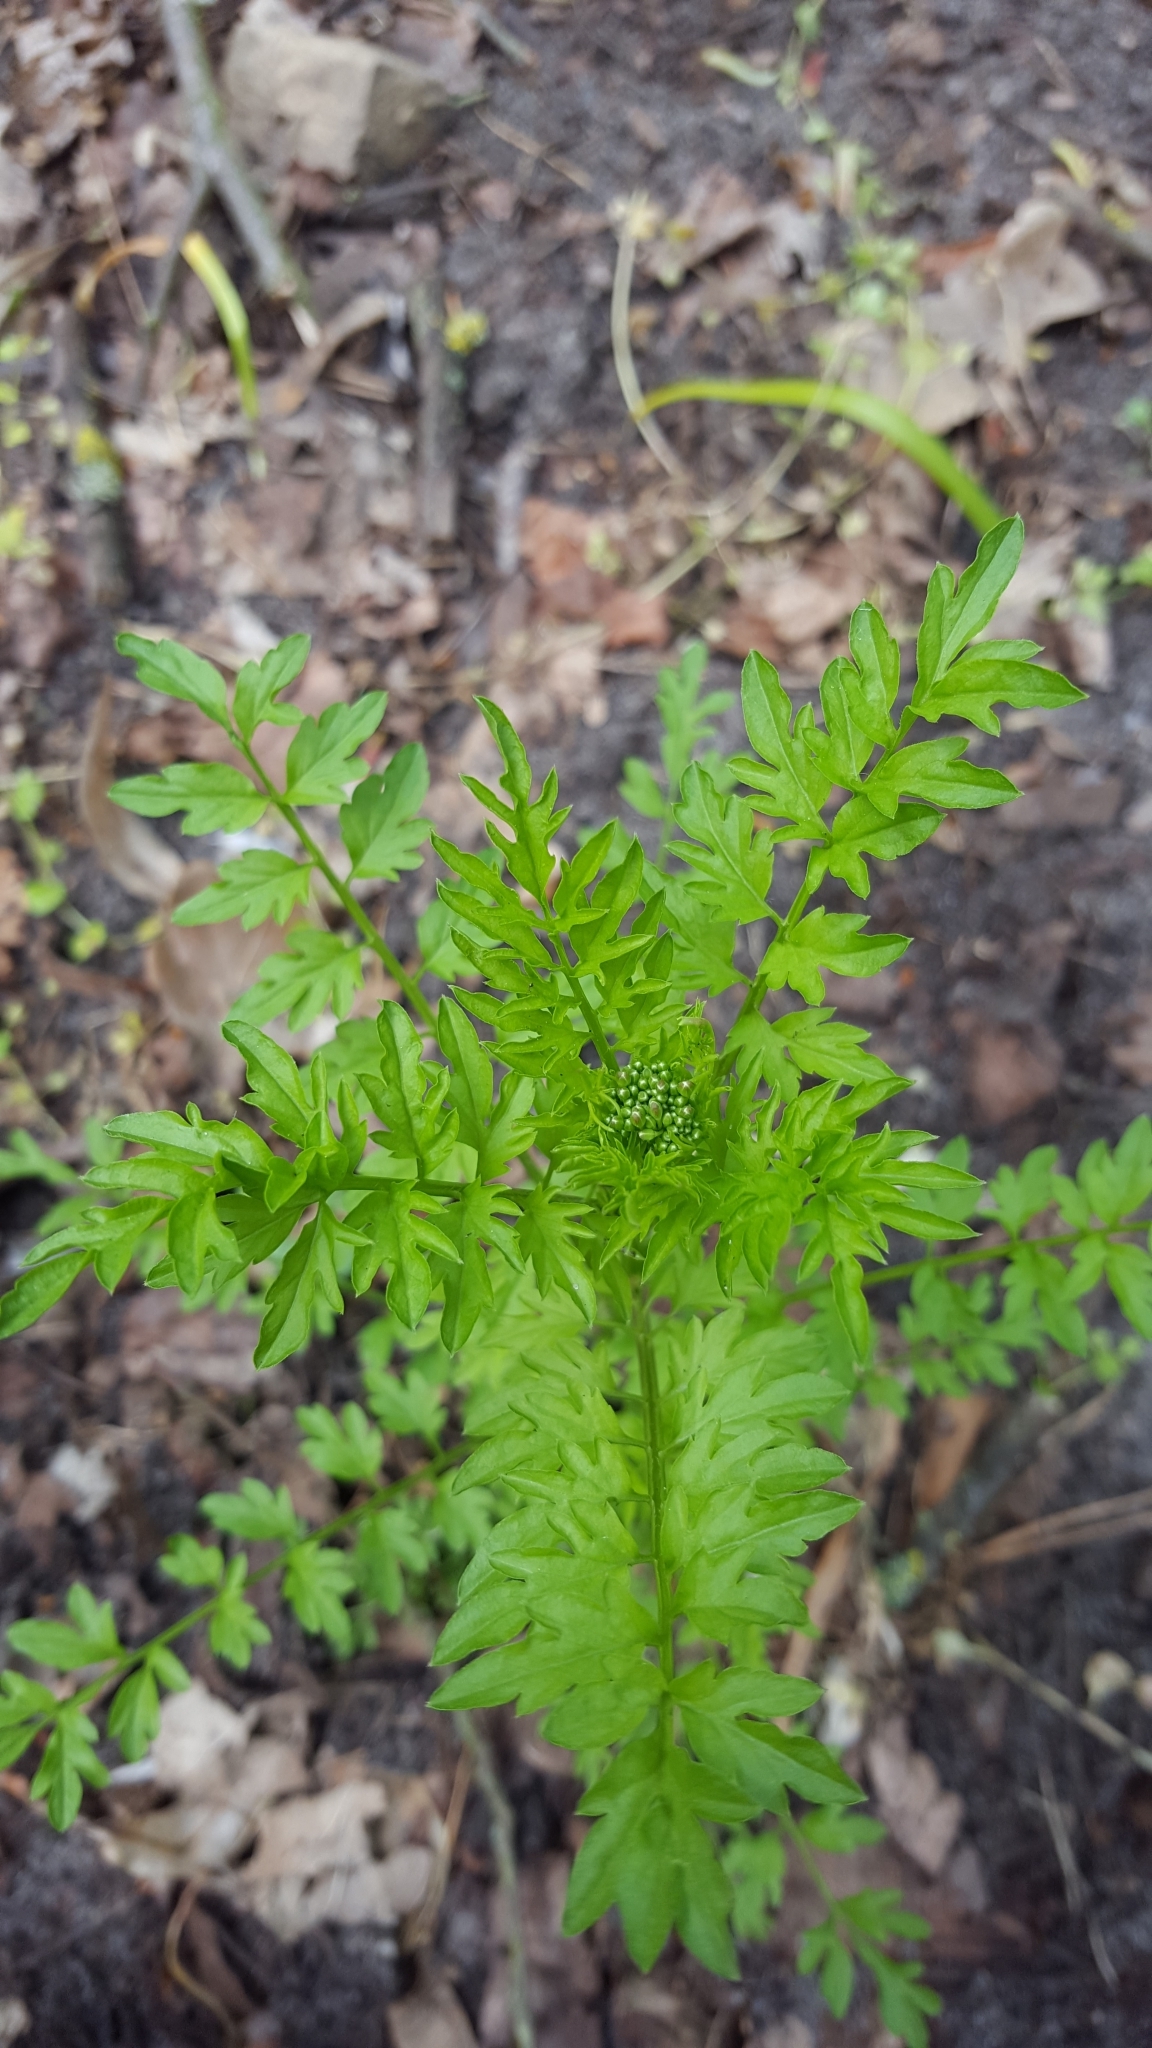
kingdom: Plantae
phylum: Tracheophyta
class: Magnoliopsida
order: Brassicales
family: Brassicaceae
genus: Cardamine
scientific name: Cardamine impatiens
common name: Narrow-leaved bitter-cress
